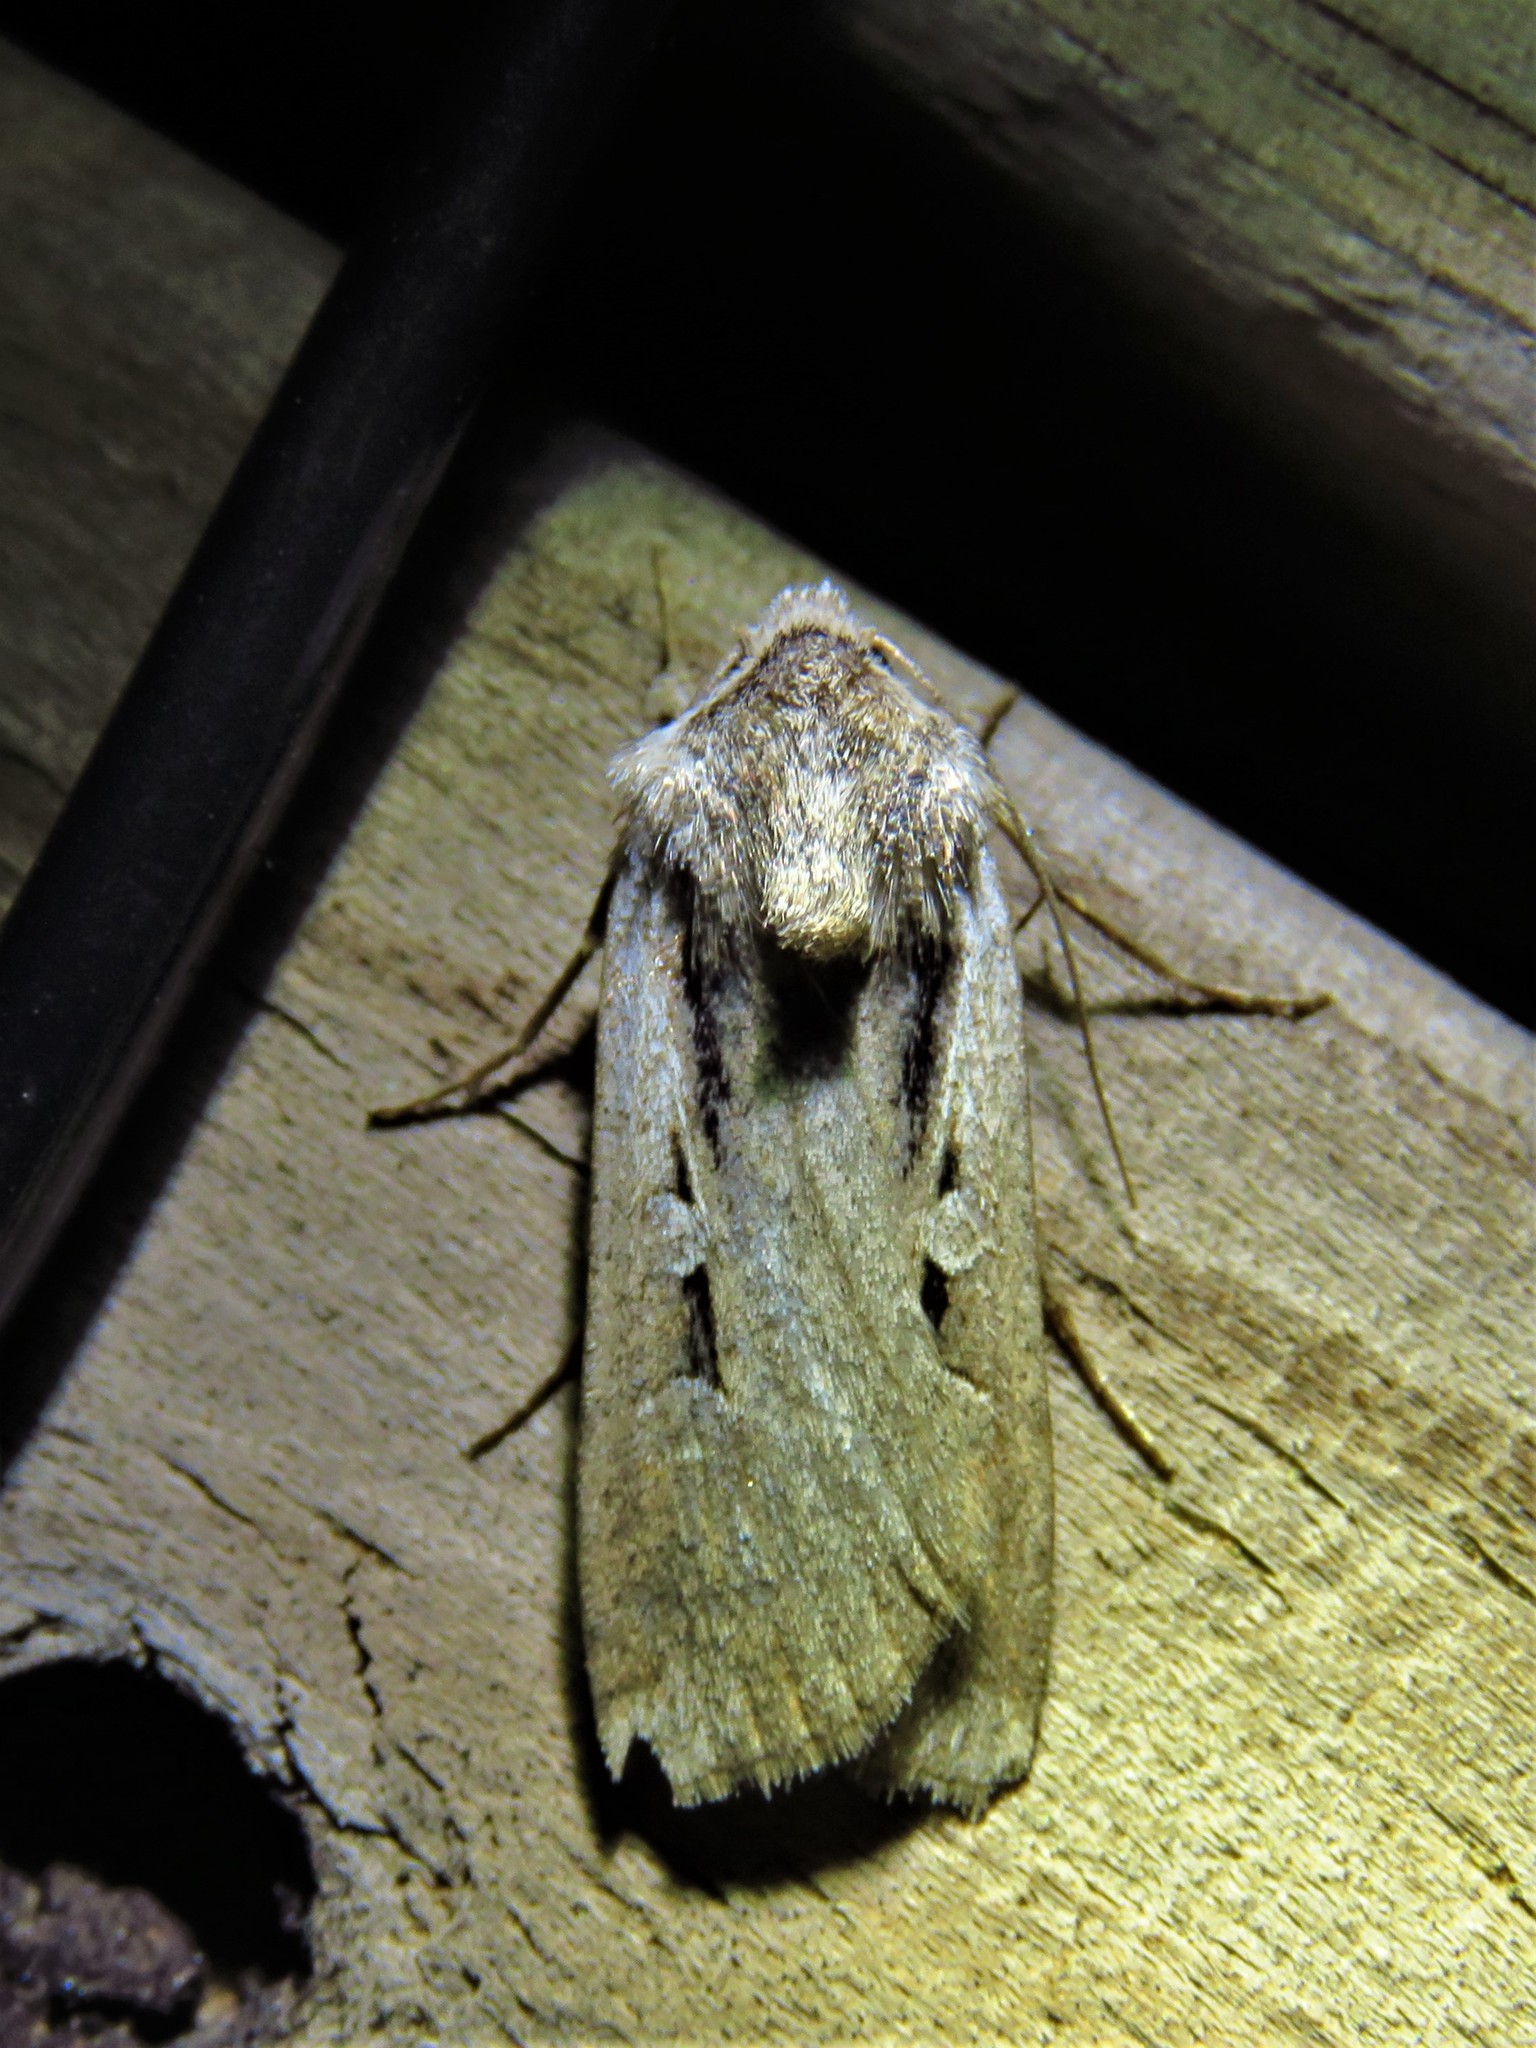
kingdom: Animalia
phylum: Arthropoda
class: Insecta
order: Lepidoptera
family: Noctuidae
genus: Hemieuxoa
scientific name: Hemieuxoa rudens
